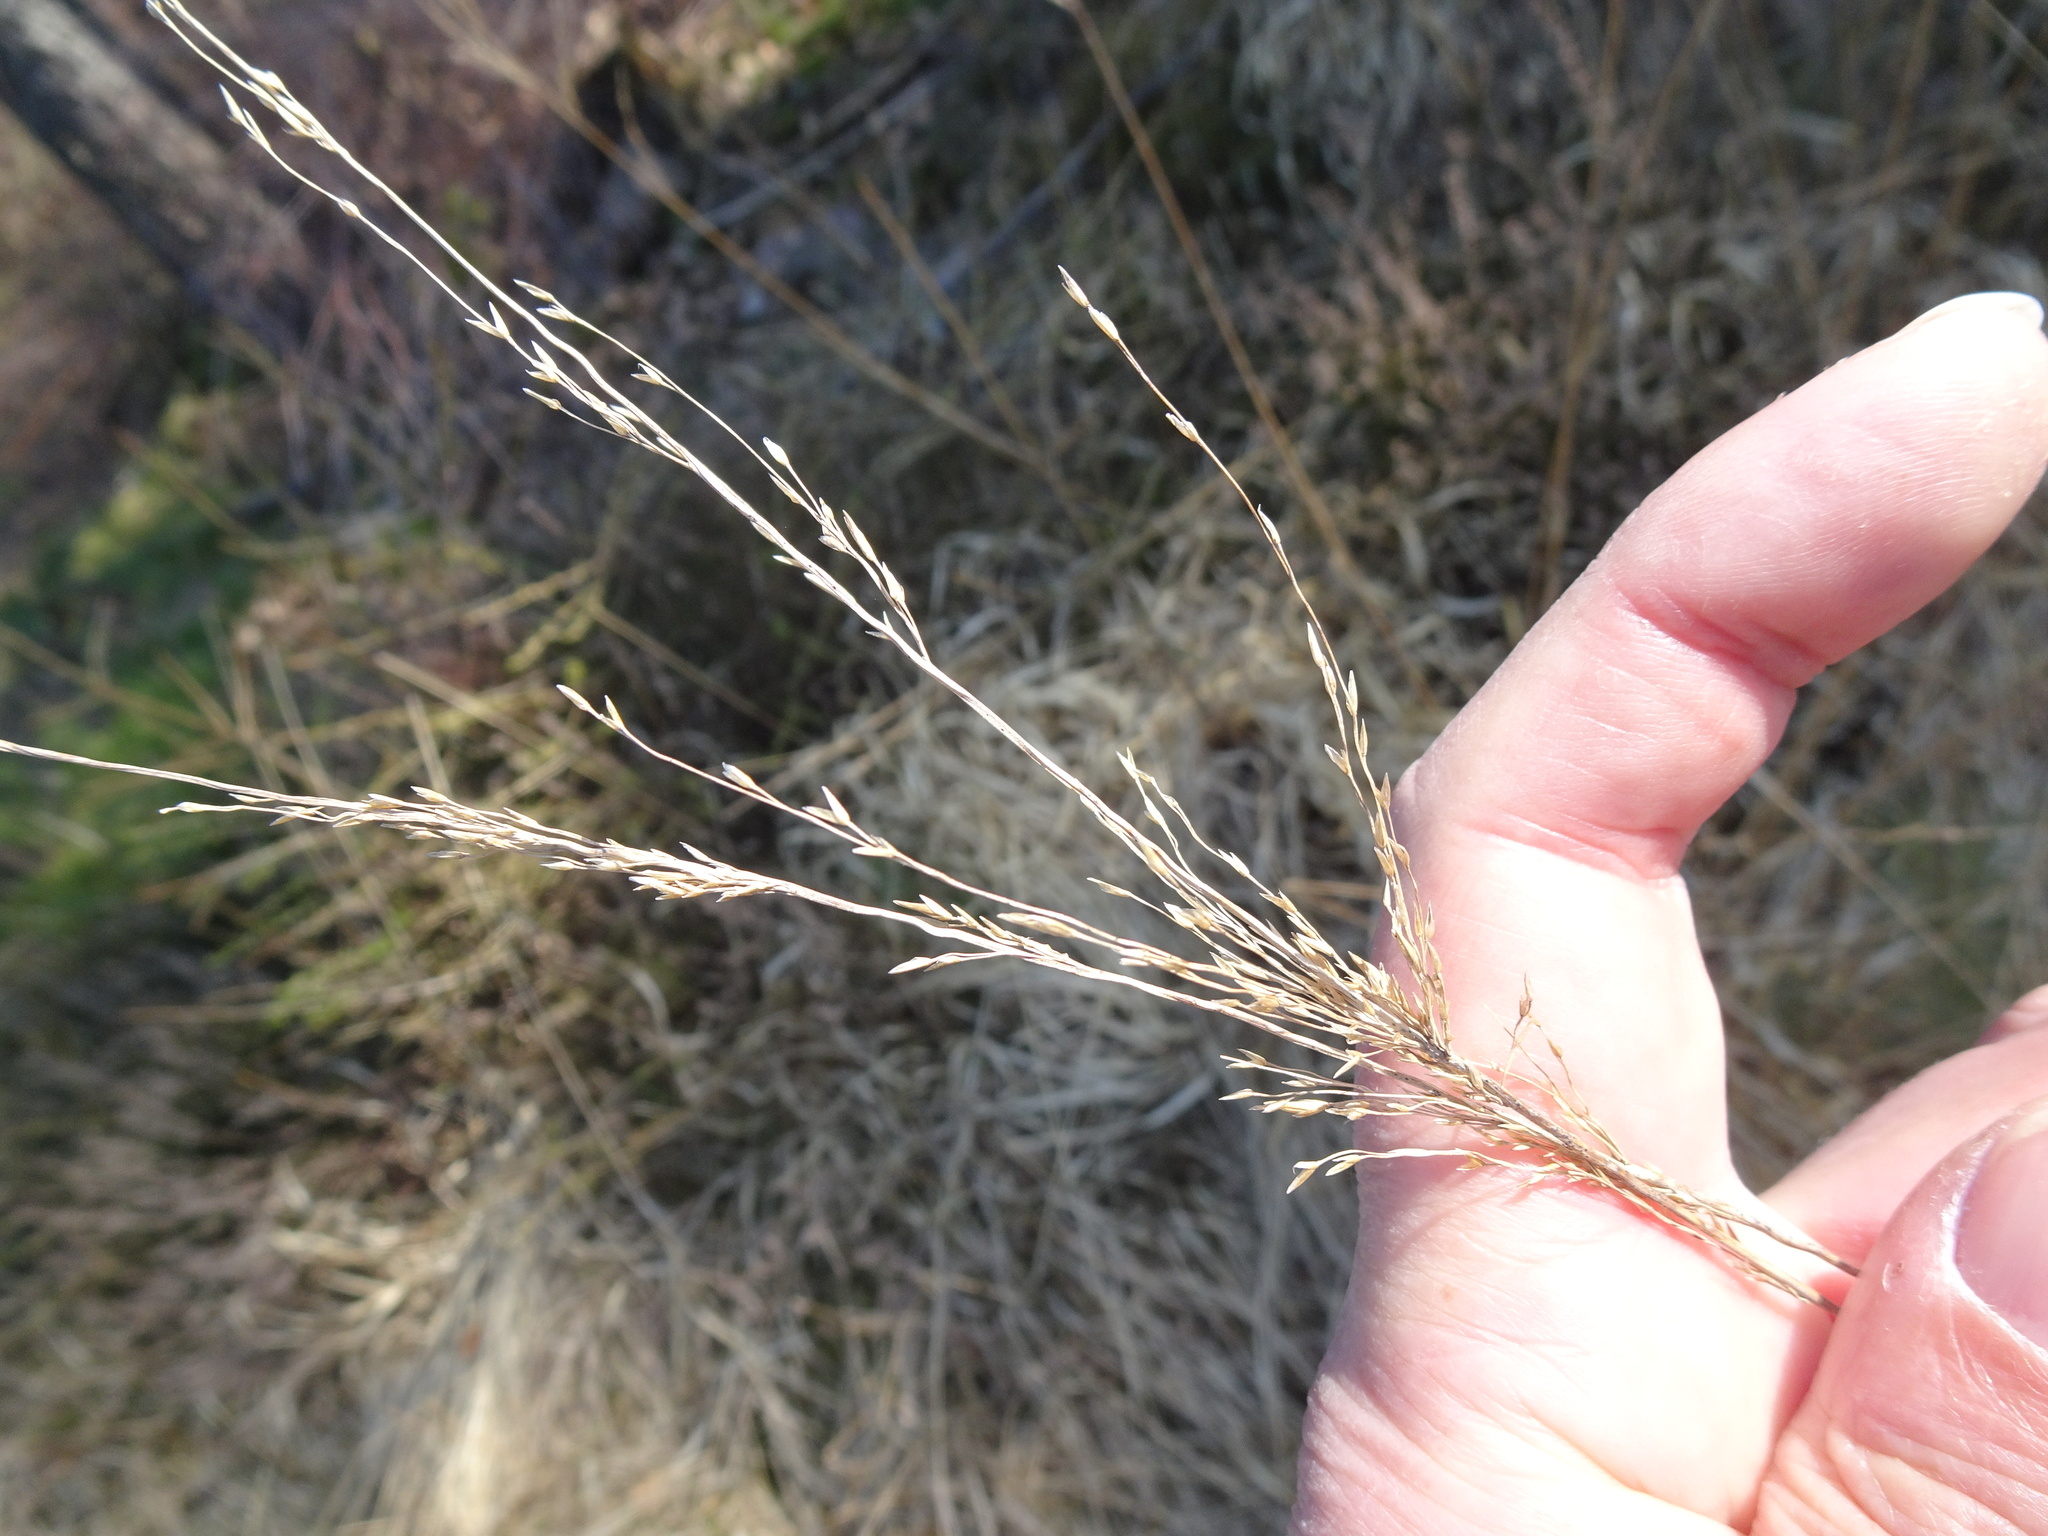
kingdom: Plantae
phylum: Tracheophyta
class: Liliopsida
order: Poales
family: Poaceae
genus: Molinia
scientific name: Molinia caerulea
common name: Purple moor-grass
